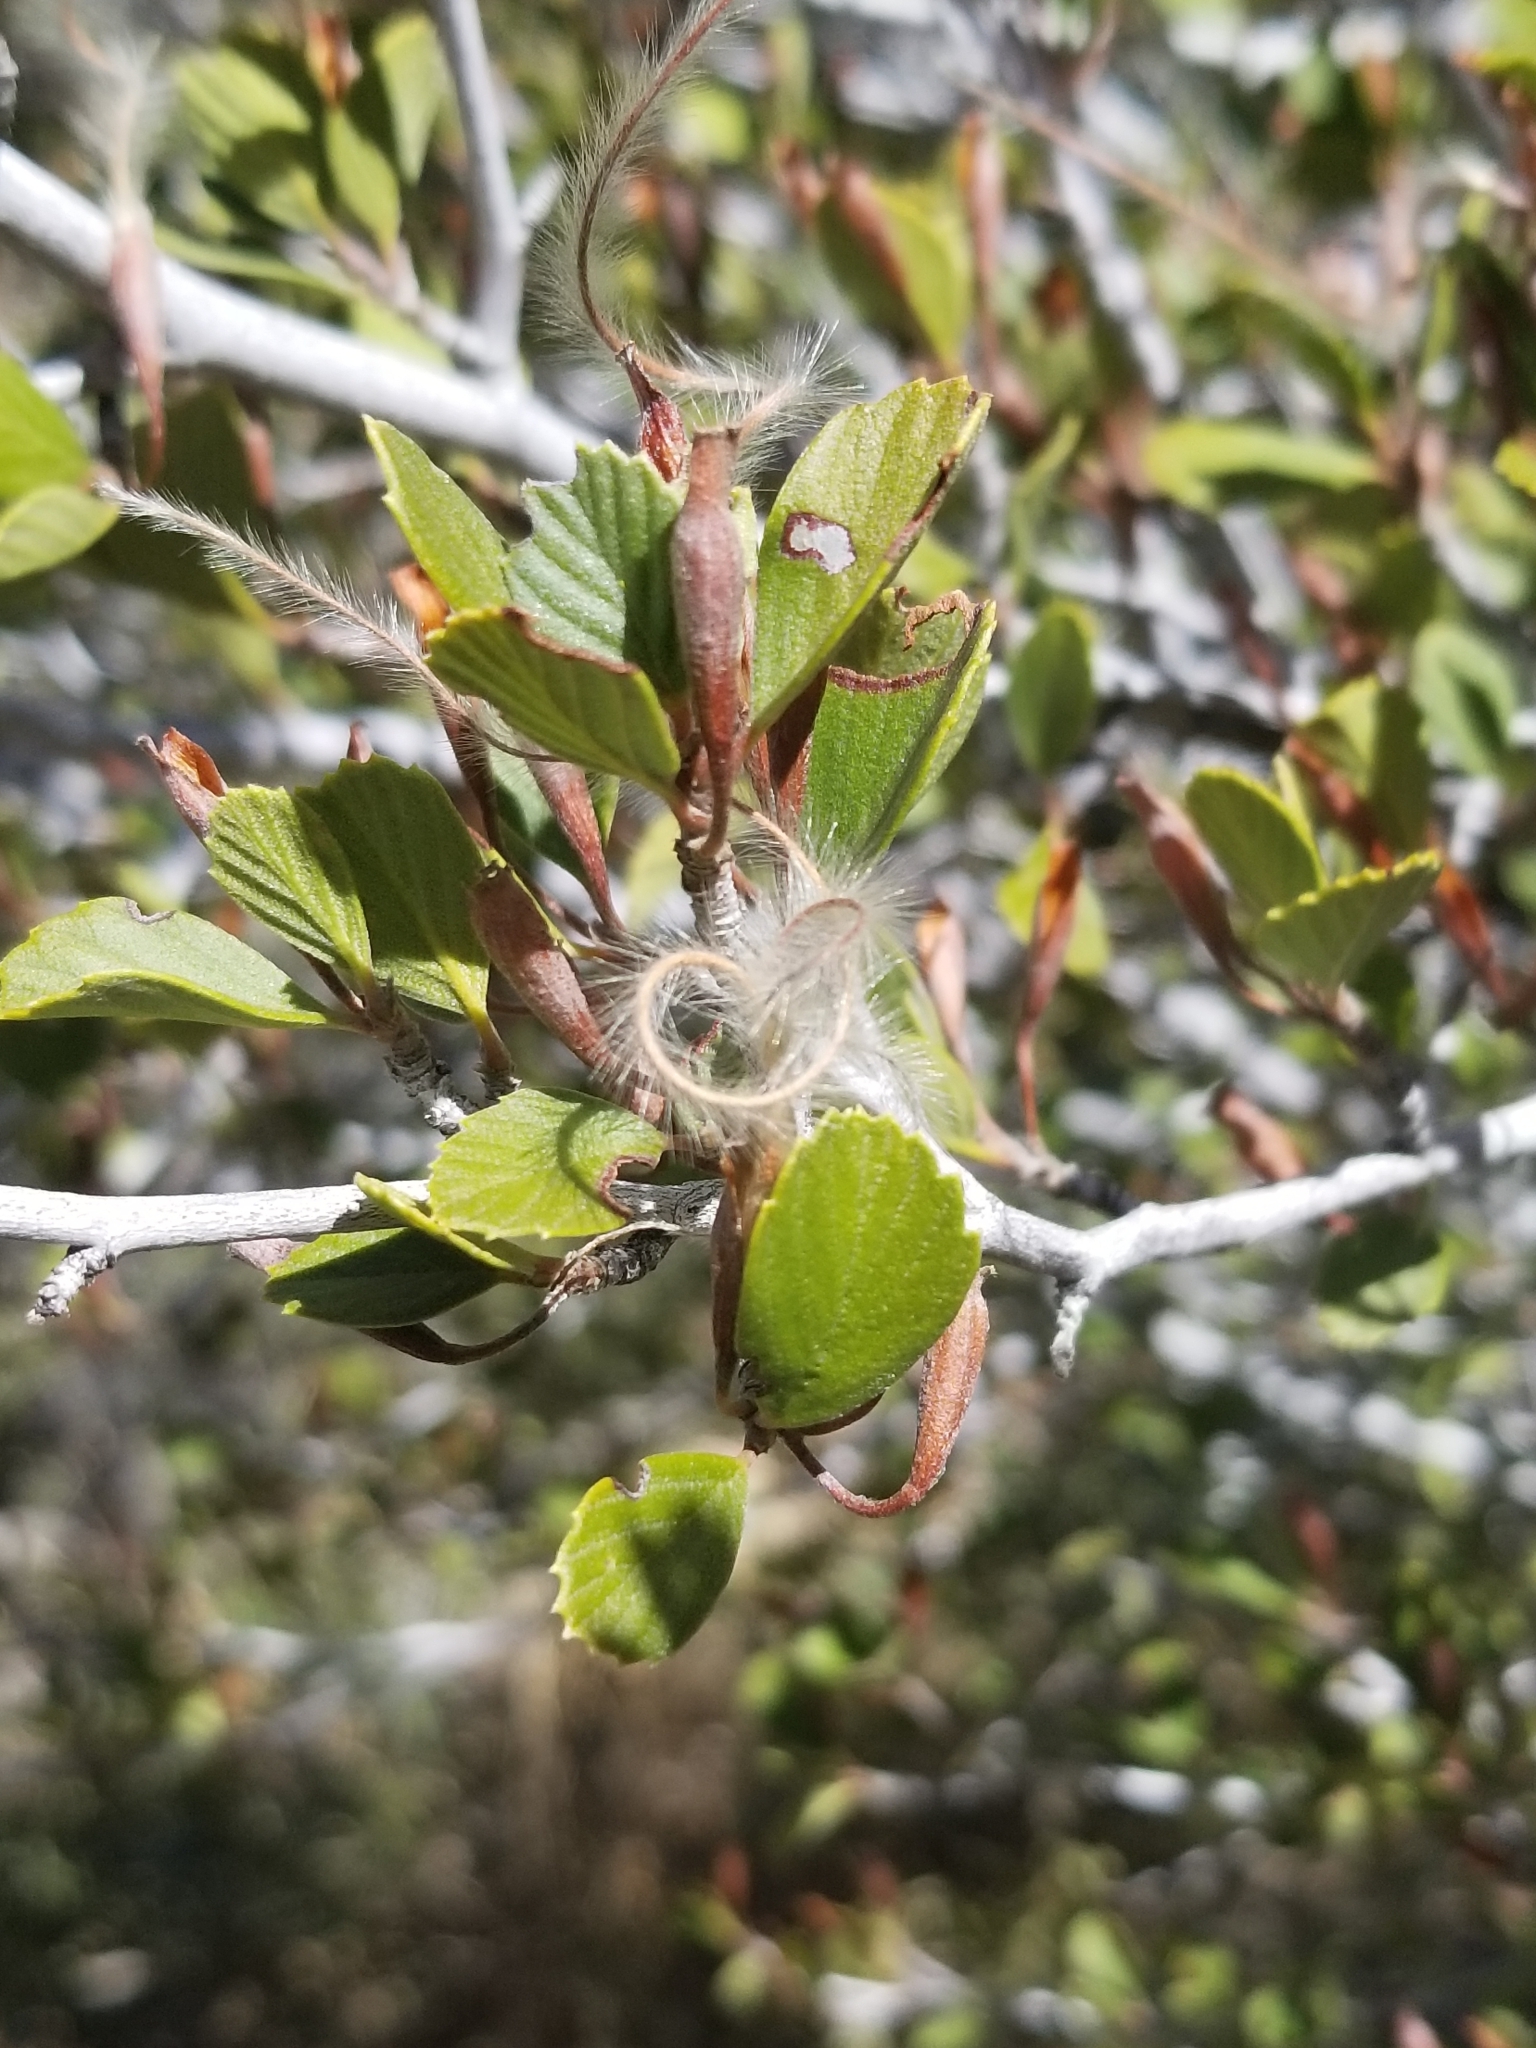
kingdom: Plantae
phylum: Tracheophyta
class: Magnoliopsida
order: Rosales
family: Rosaceae
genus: Cercocarpus
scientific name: Cercocarpus betuloides
